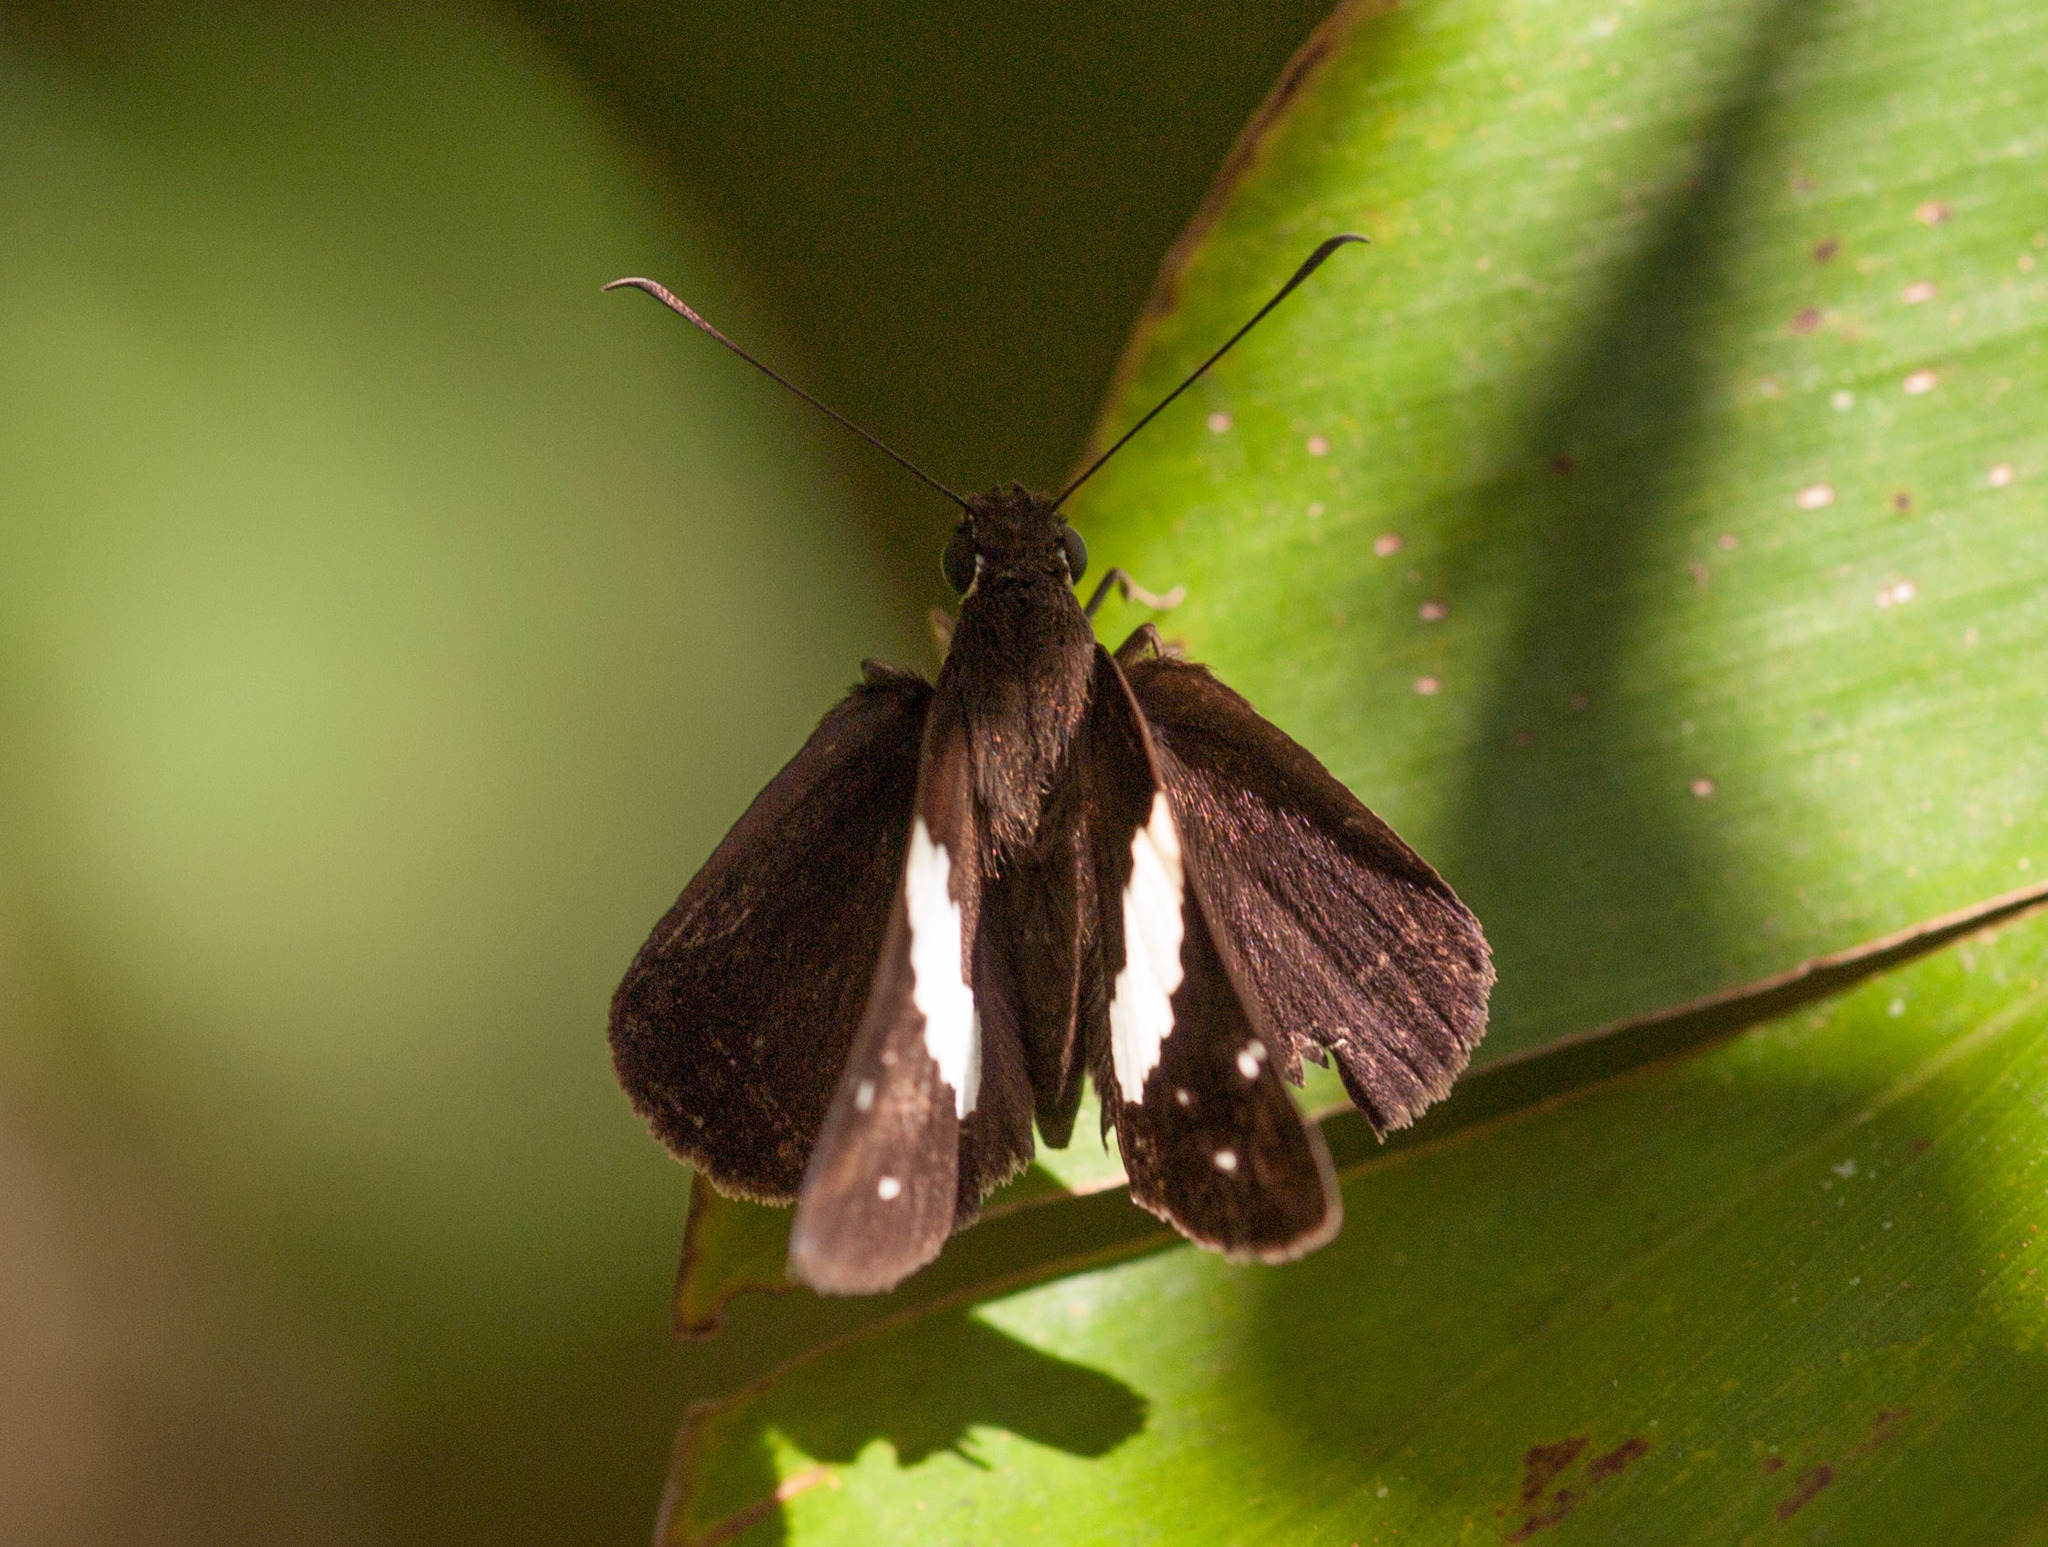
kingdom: Animalia
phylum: Arthropoda
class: Insecta
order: Lepidoptera
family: Hesperiidae
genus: Notocrypta
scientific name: Notocrypta waigensis
